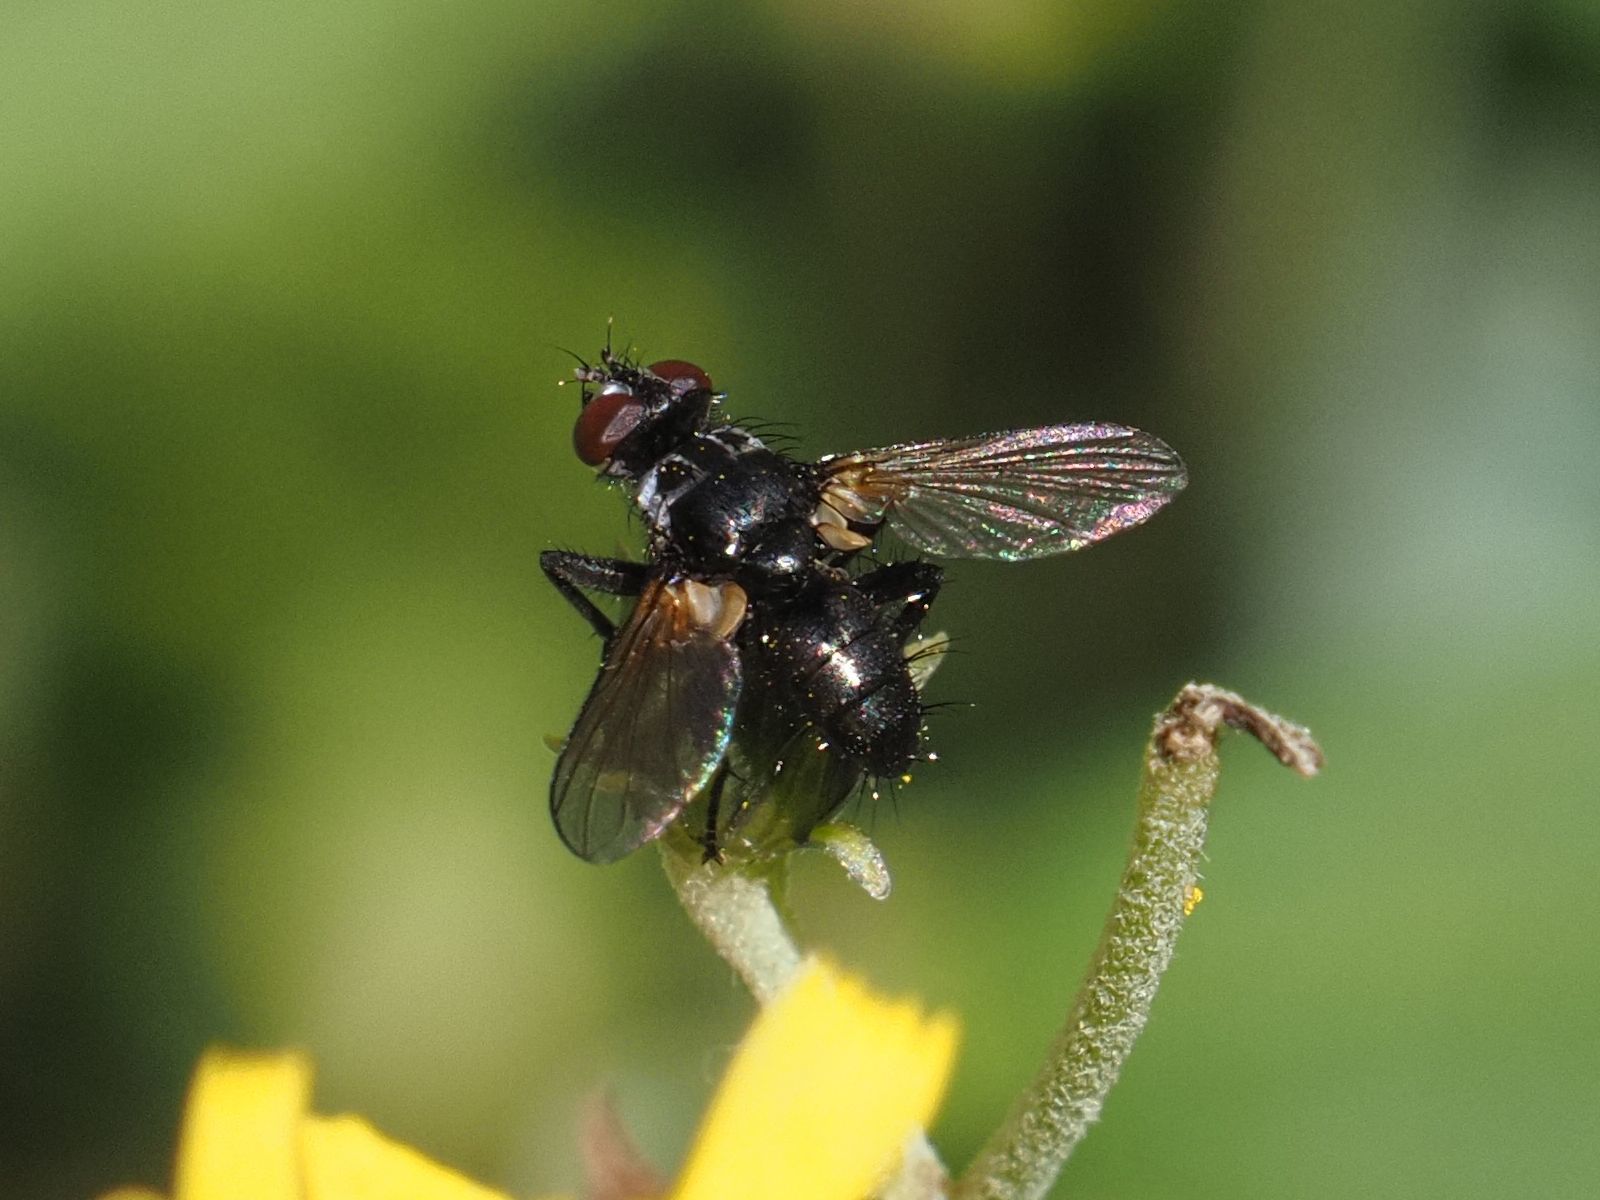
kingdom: Animalia
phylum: Arthropoda
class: Insecta
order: Diptera
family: Tachinidae
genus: Phania
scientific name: Phania funesta
